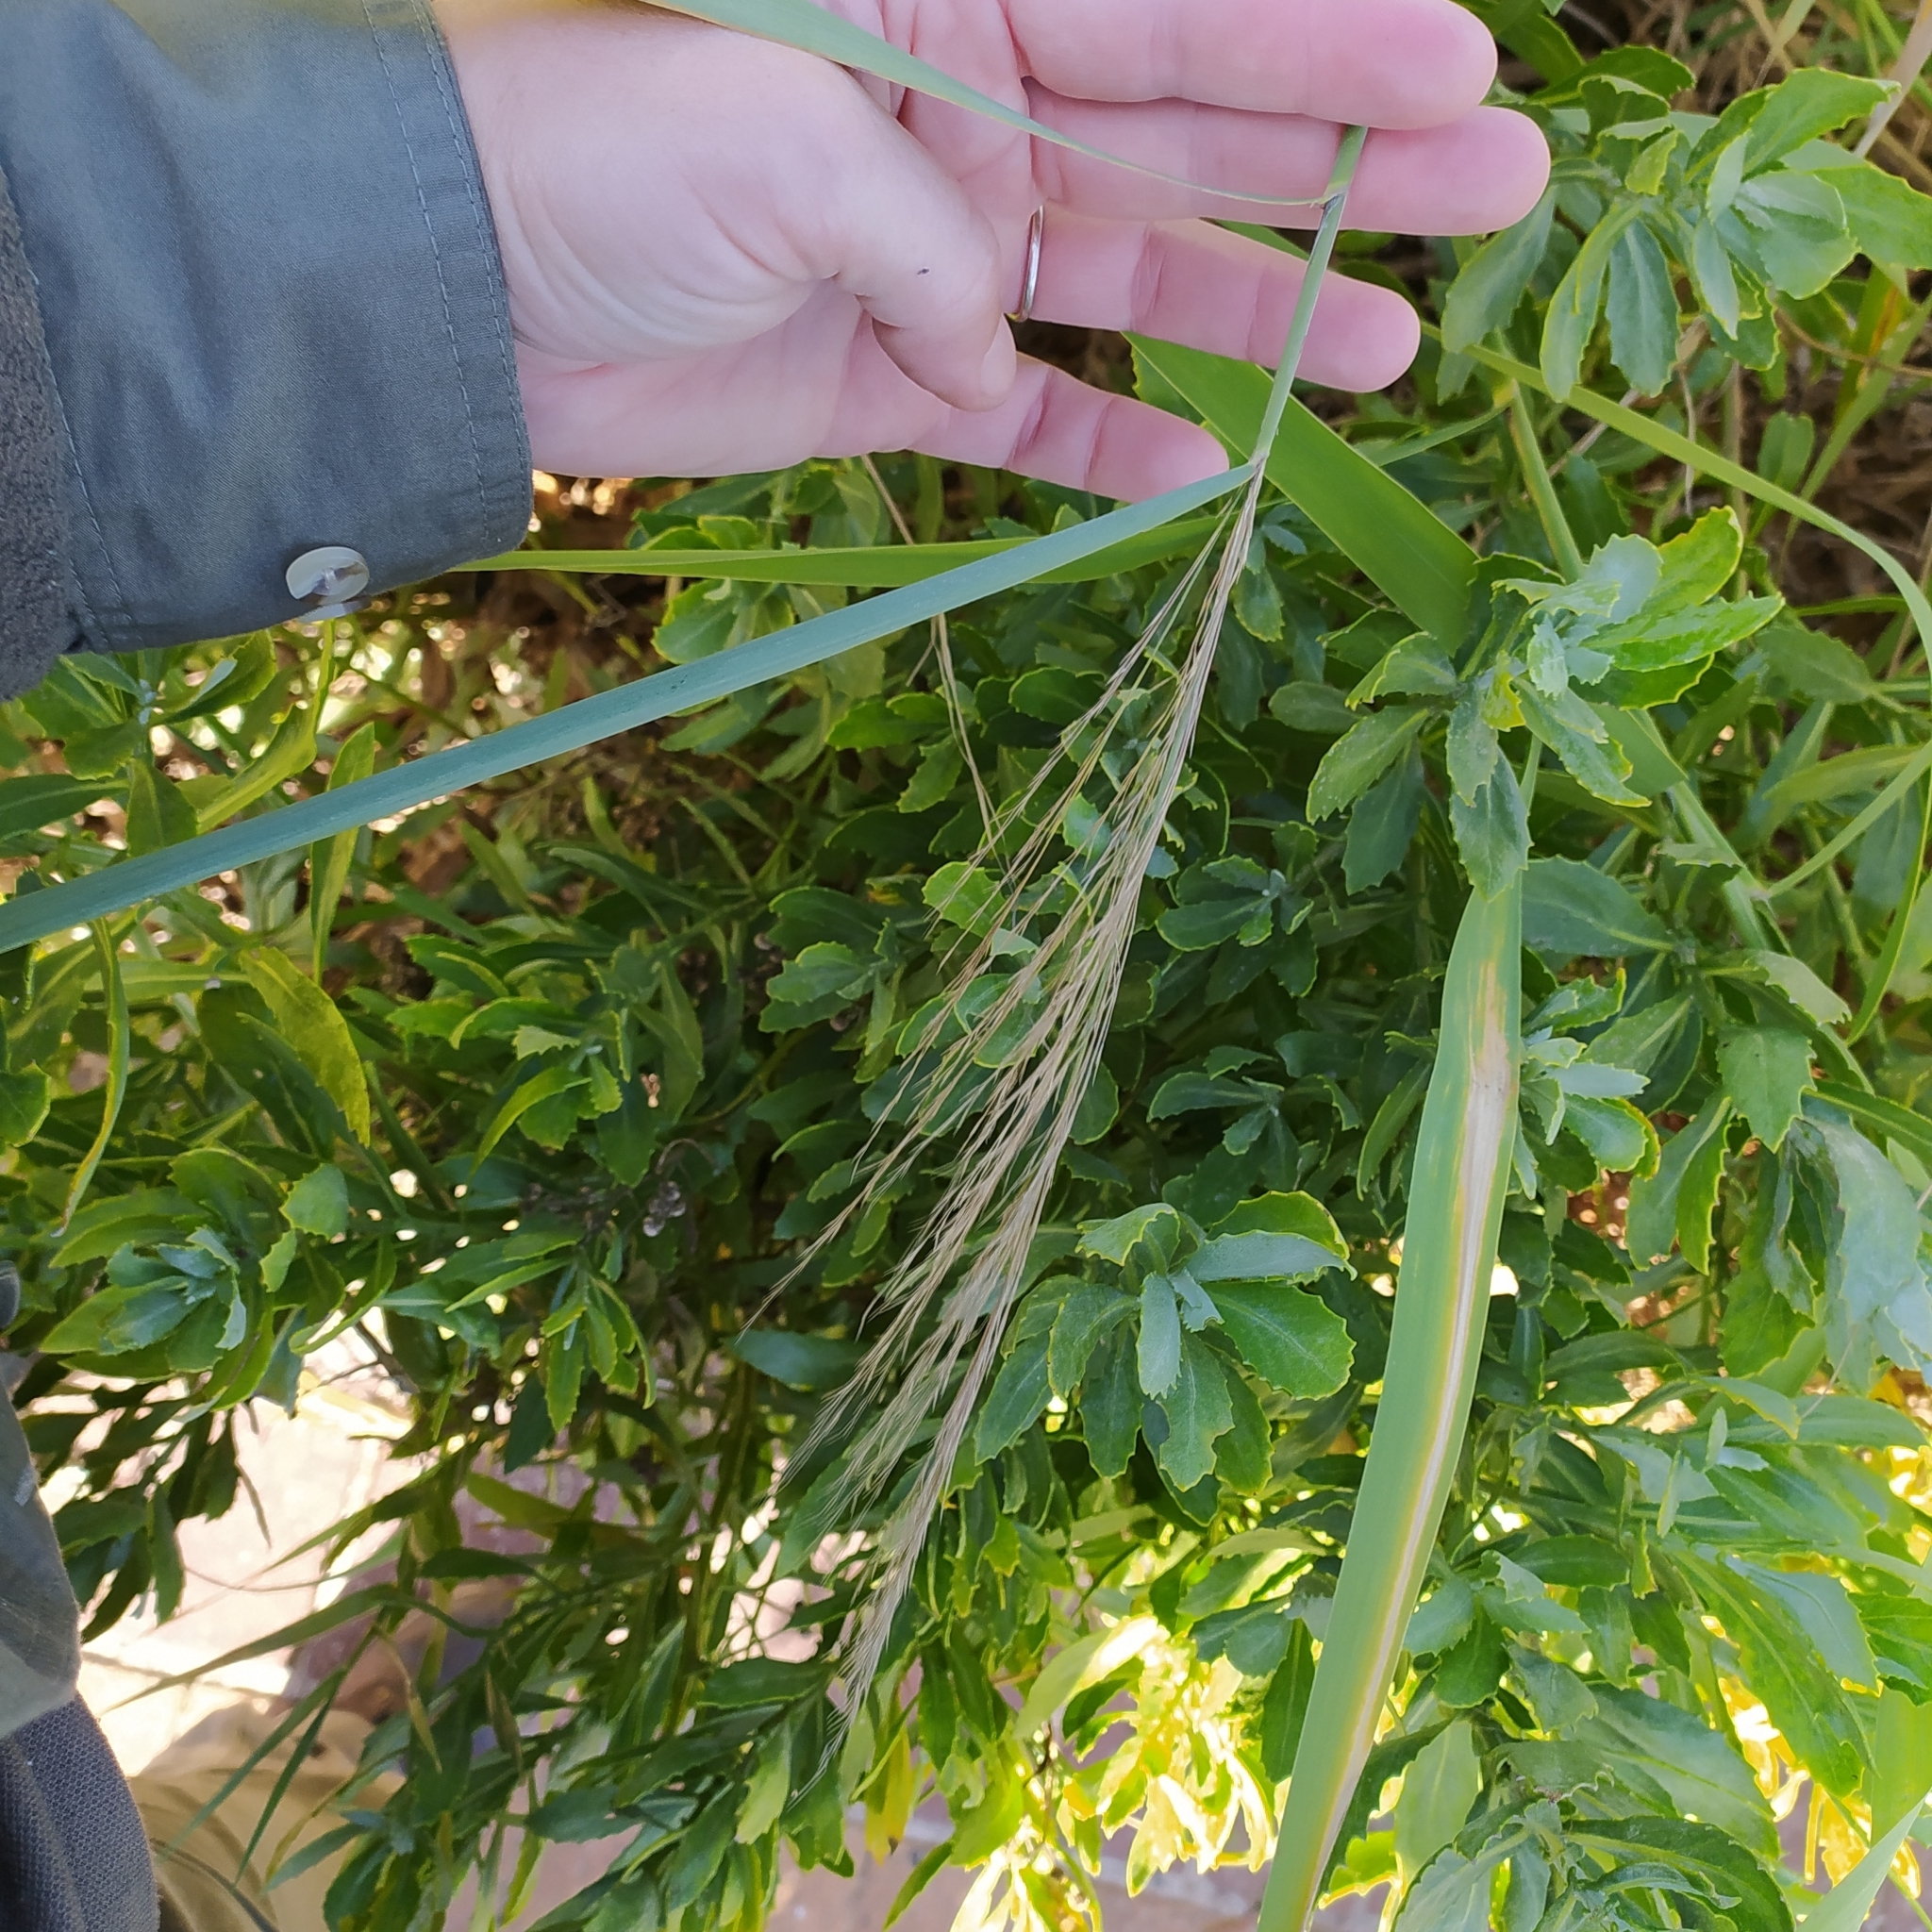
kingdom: Plantae
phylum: Tracheophyta
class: Liliopsida
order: Poales
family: Poaceae
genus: Phragmites
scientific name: Phragmites australis
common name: Common reed
